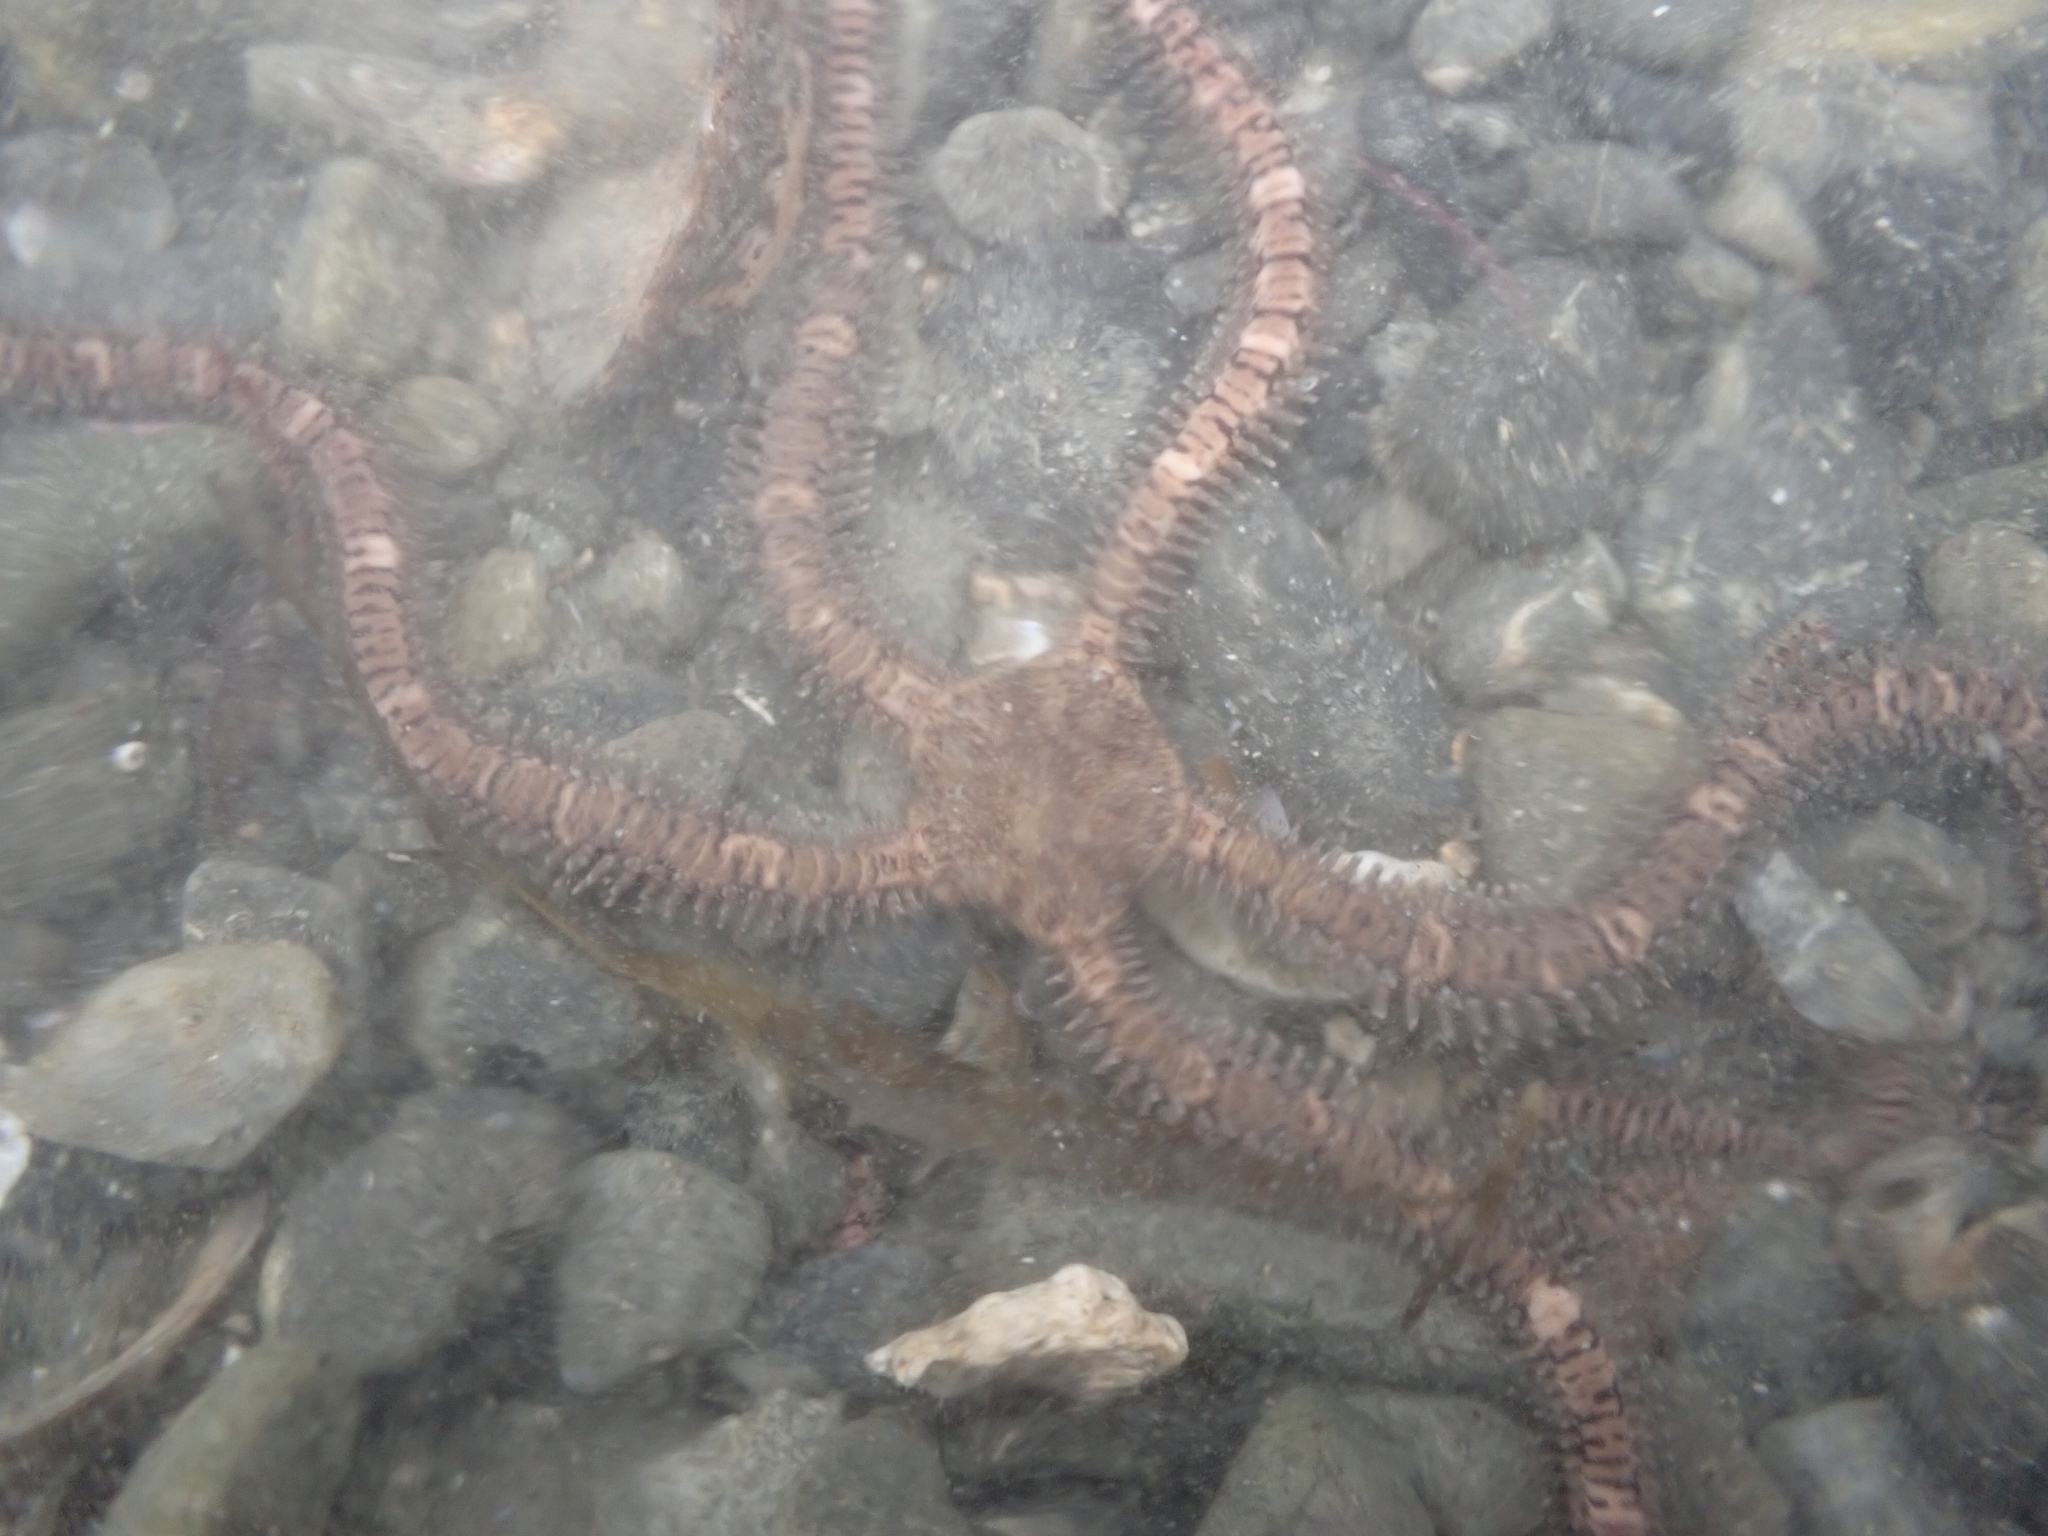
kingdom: Animalia
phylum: Echinodermata
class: Ophiuroidea
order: Amphilepidida
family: Ophionereididae
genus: Ophionereis
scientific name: Ophionereis fasciata
